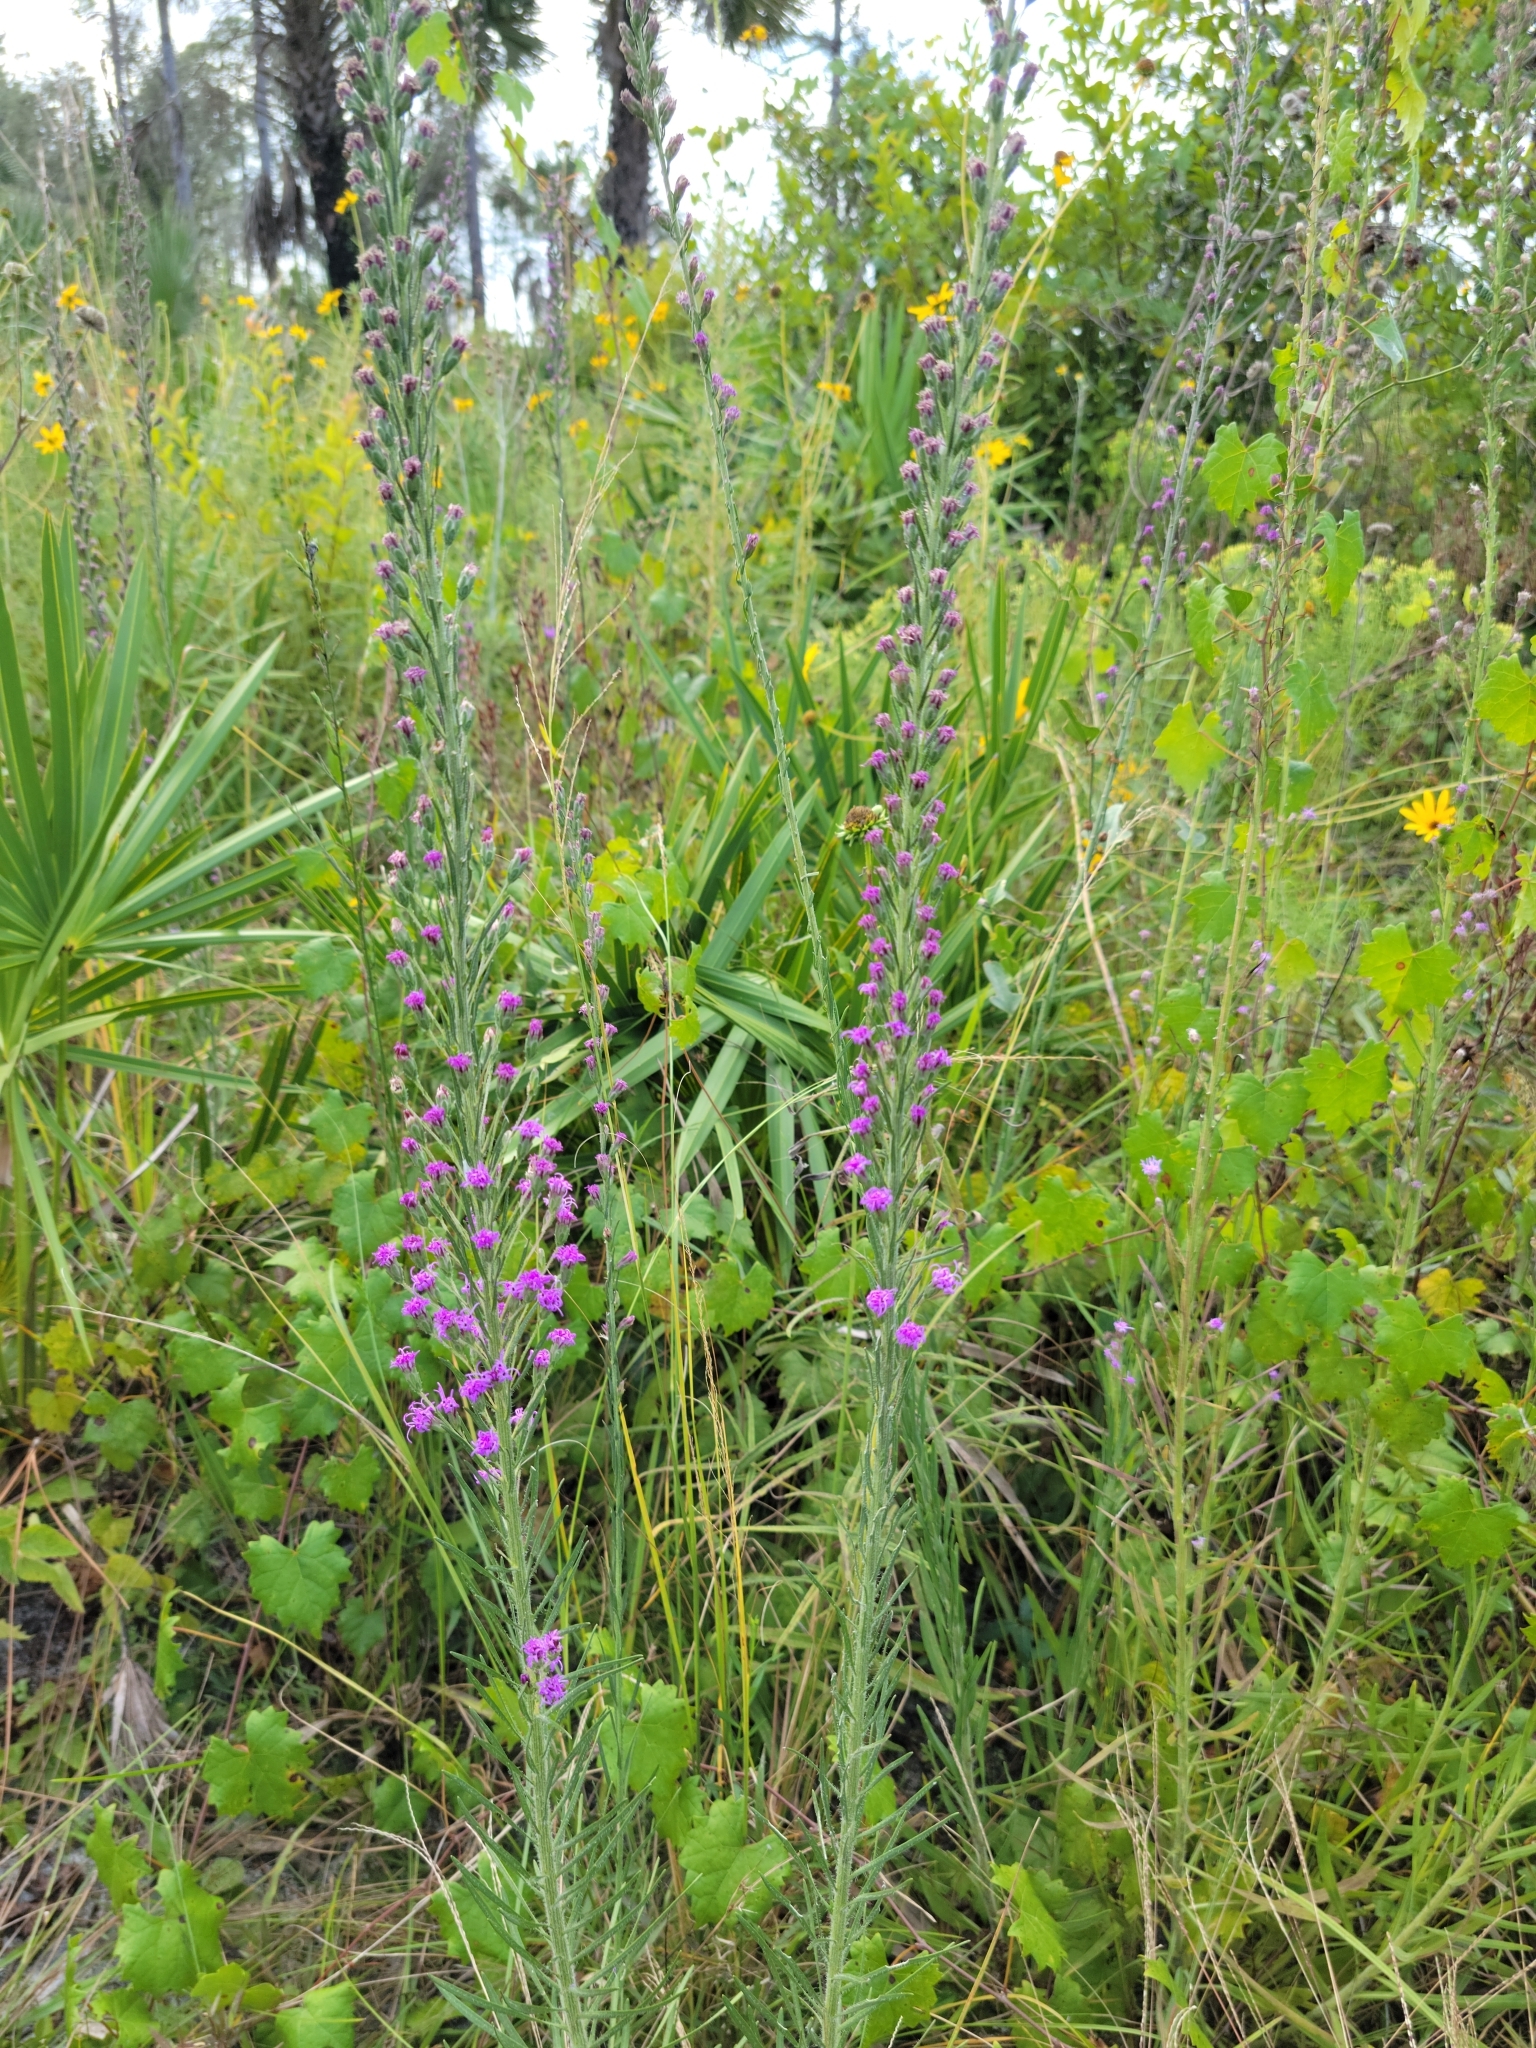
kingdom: Plantae
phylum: Tracheophyta
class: Magnoliopsida
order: Asterales
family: Asteraceae
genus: Liatris
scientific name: Liatris gracilis
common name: Slender gayfeather
